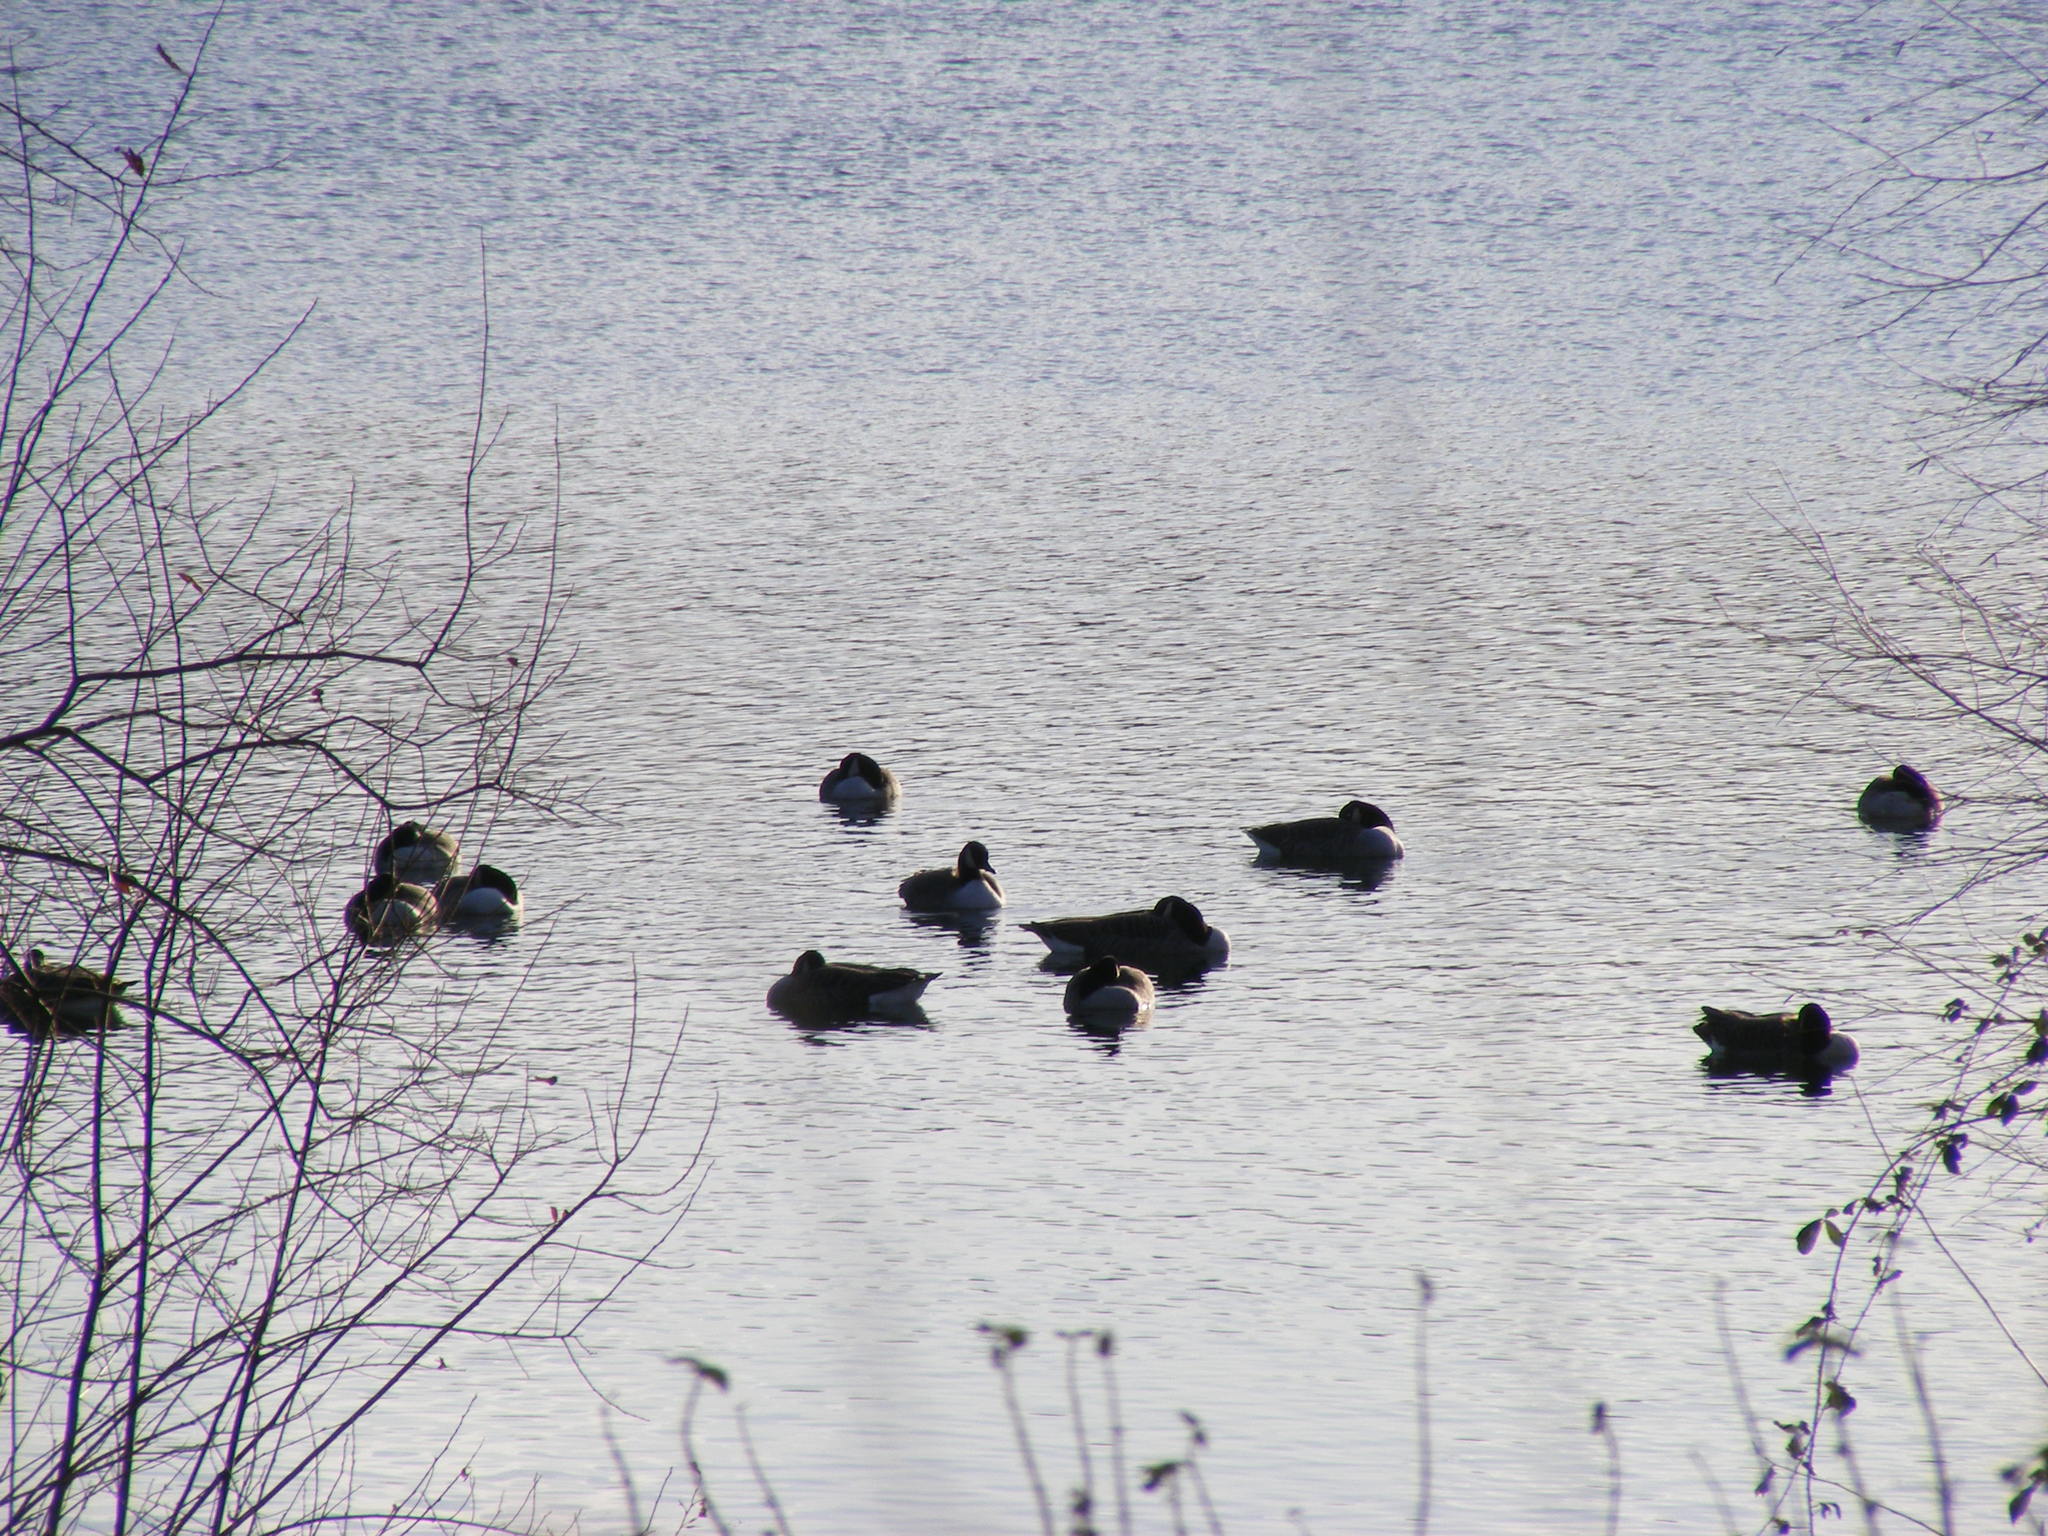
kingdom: Animalia
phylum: Chordata
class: Aves
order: Anseriformes
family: Anatidae
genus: Branta
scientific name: Branta canadensis
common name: Canada goose
